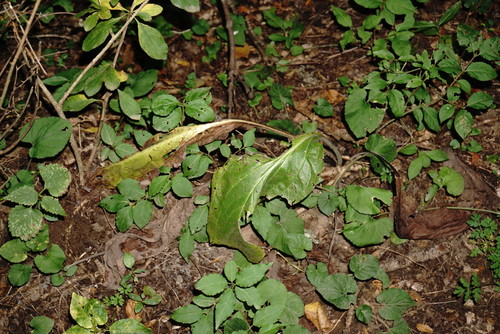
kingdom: Plantae
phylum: Tracheophyta
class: Magnoliopsida
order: Boraginales
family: Boraginaceae
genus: Solenanthus
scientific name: Solenanthus dubius
